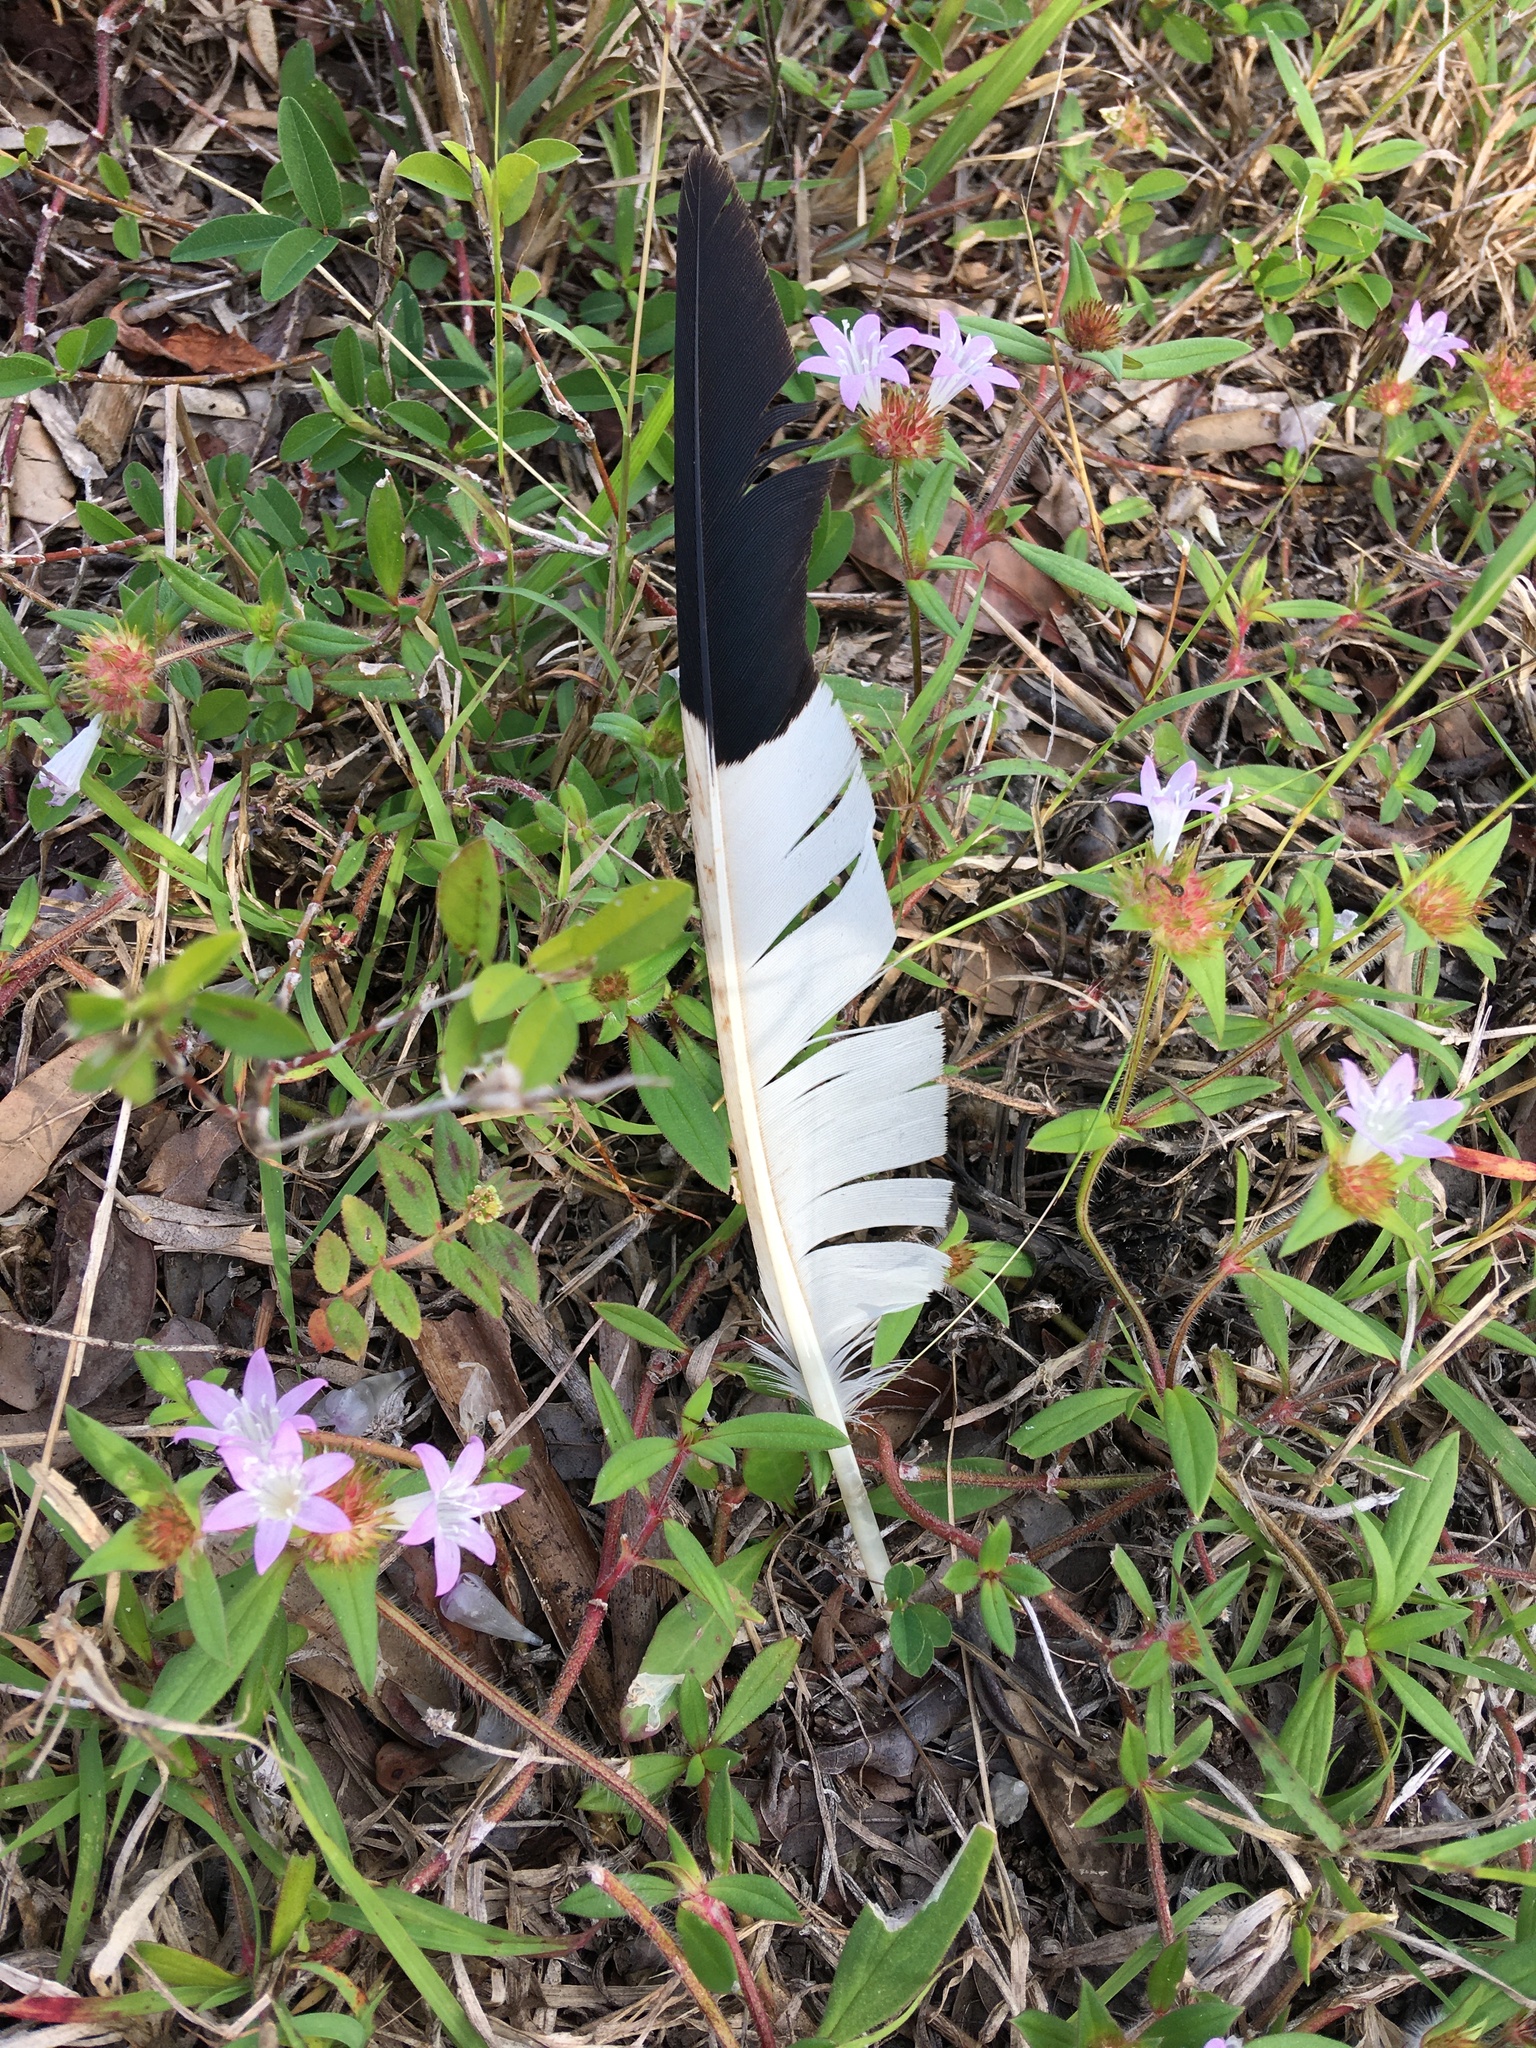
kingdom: Animalia
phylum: Chordata
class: Aves
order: Pelecaniformes
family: Threskiornithidae
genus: Eudocimus
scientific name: Eudocimus albus
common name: White ibis
